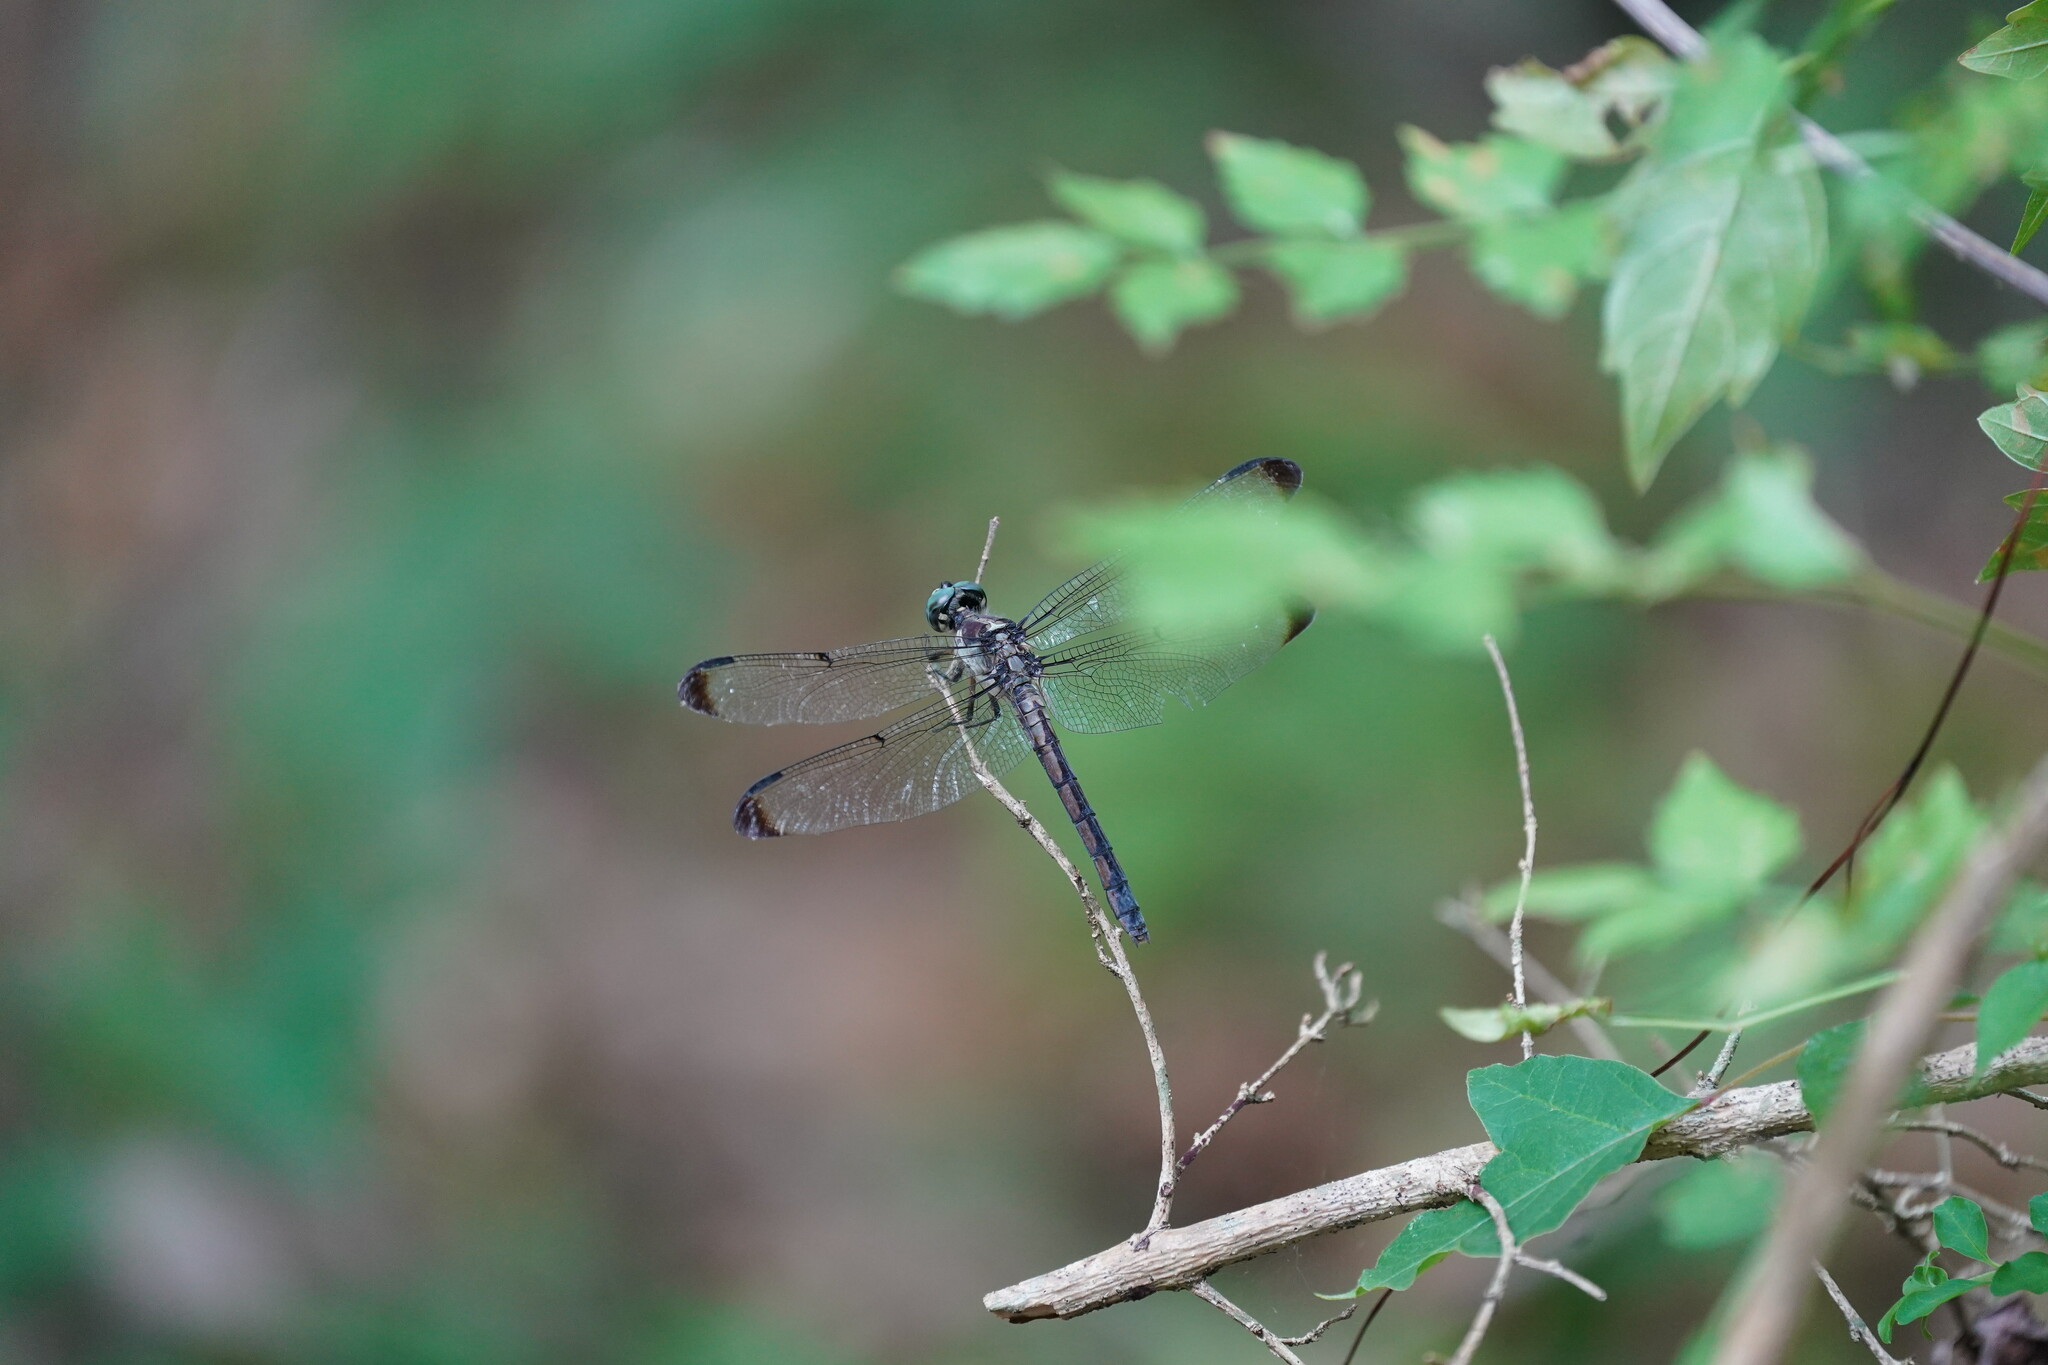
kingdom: Animalia
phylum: Arthropoda
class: Insecta
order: Odonata
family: Libellulidae
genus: Libellula
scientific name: Libellula vibrans
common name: Great blue skimmer
